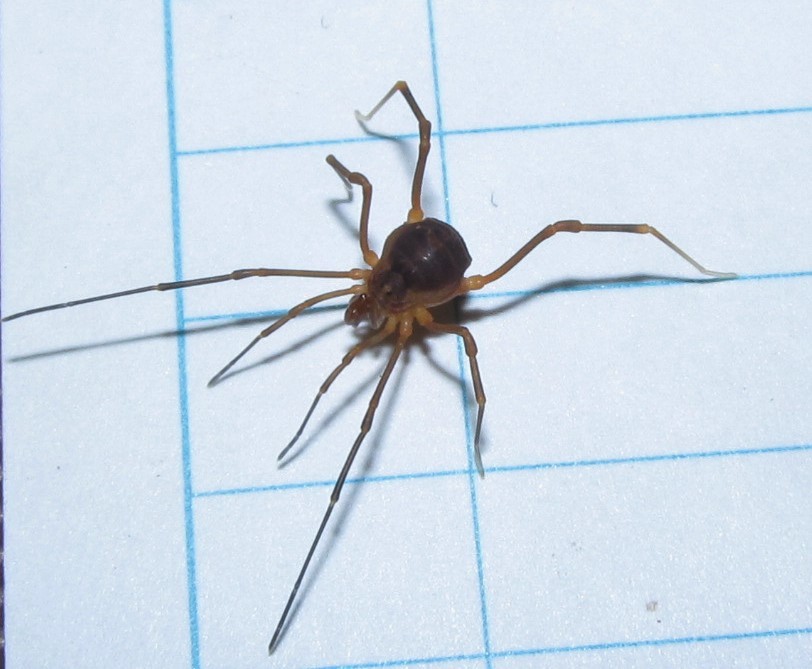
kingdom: Animalia
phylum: Arthropoda
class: Arachnida
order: Opiliones
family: Cosmetidae
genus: Libitioides
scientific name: Libitioides sayi
